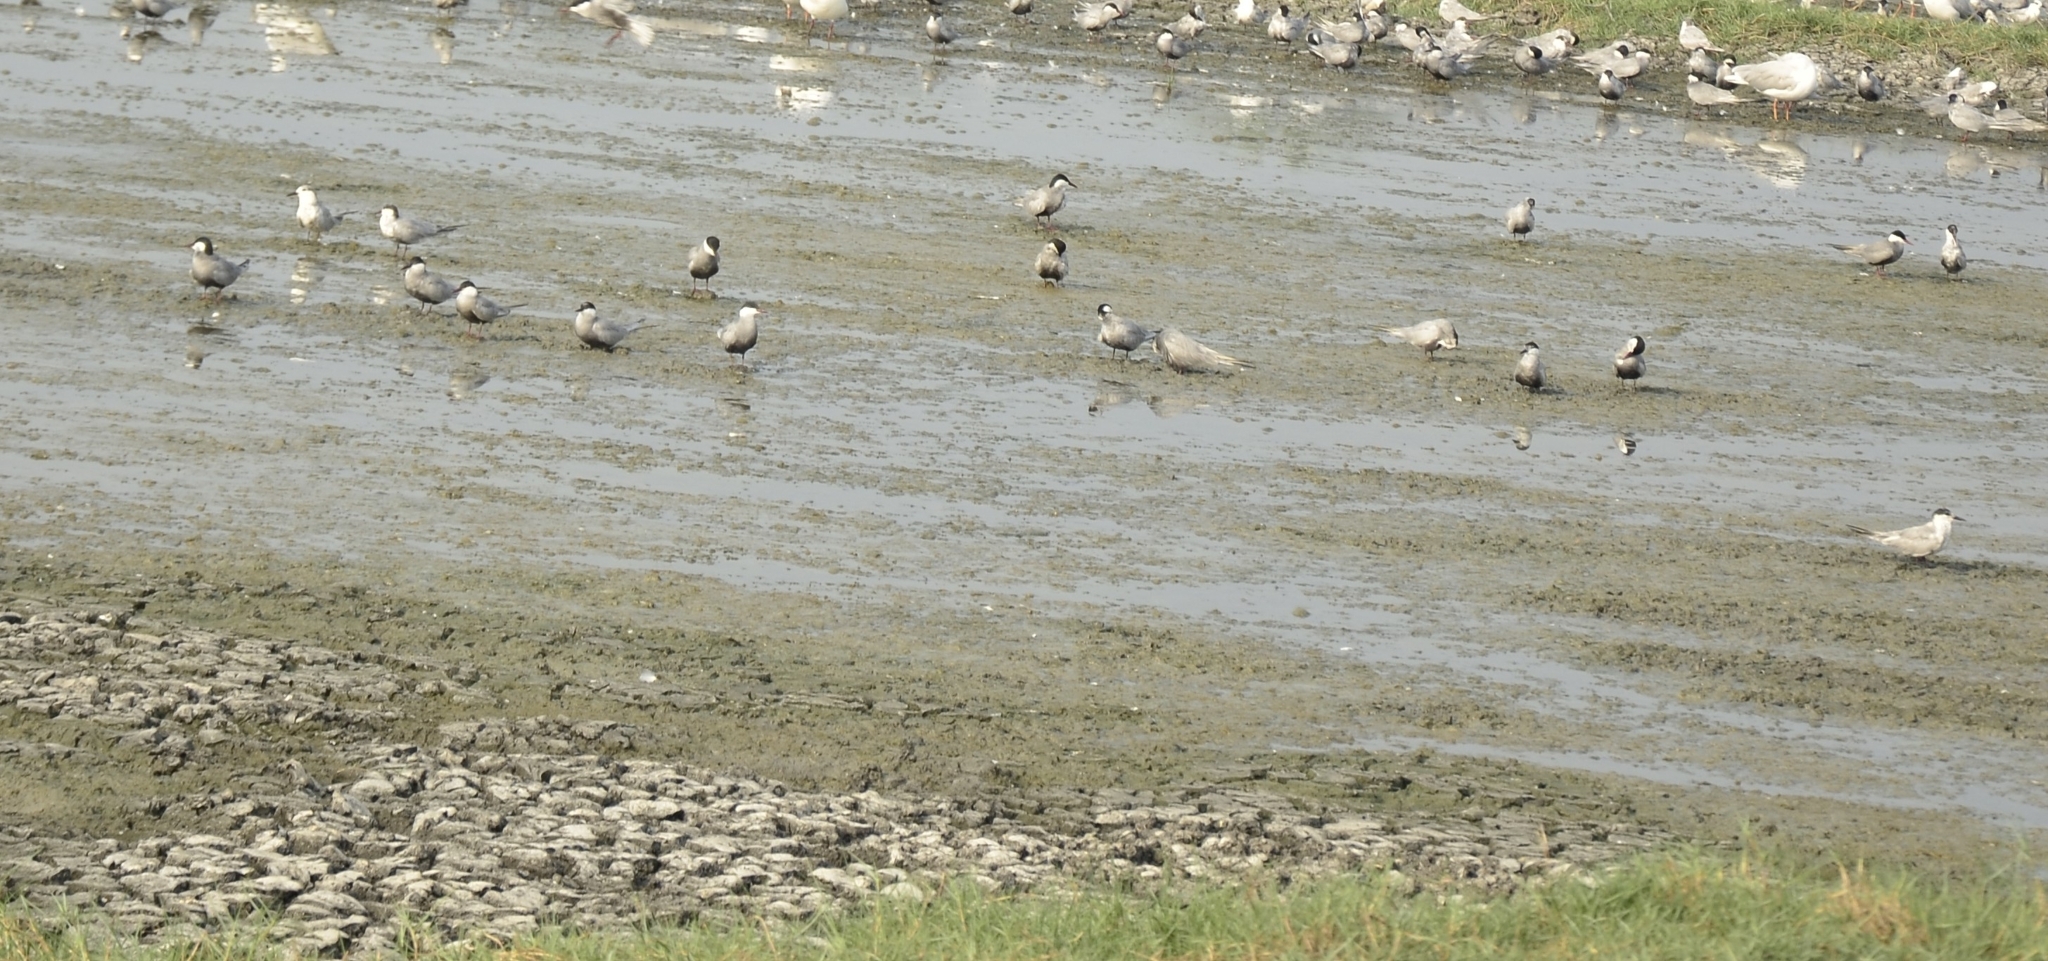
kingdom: Animalia
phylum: Chordata
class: Aves
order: Charadriiformes
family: Laridae
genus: Chlidonias
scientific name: Chlidonias hybrida
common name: Whiskered tern
